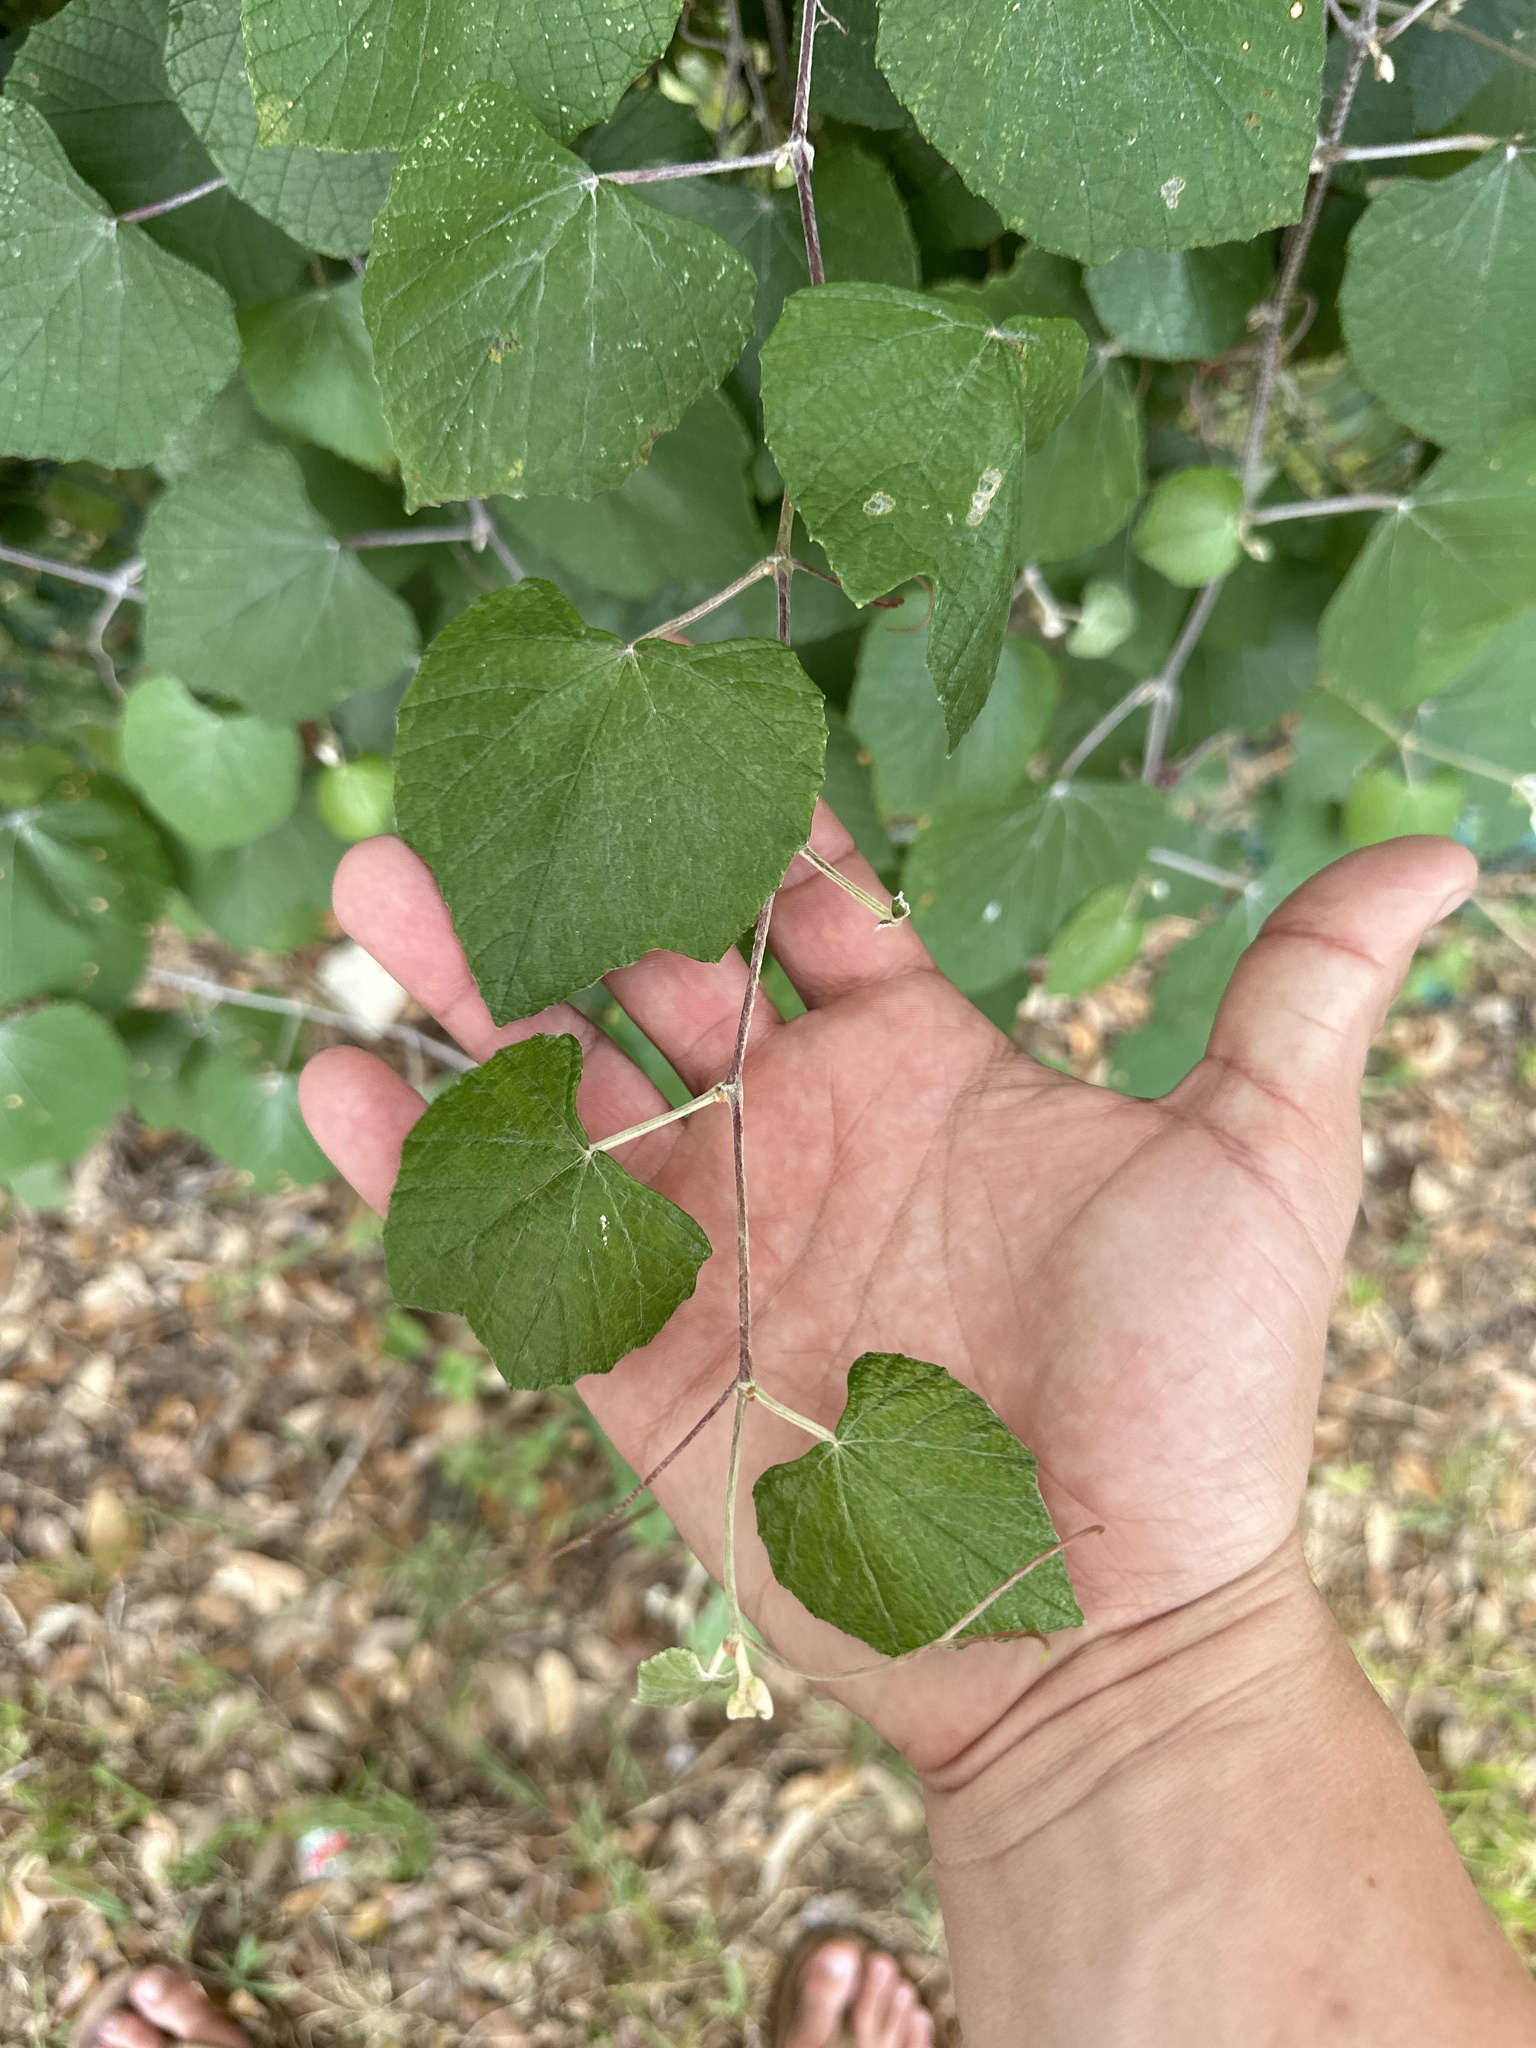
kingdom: Plantae
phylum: Tracheophyta
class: Magnoliopsida
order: Vitales
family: Vitaceae
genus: Vitis
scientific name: Vitis mustangensis
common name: Mustang grape
